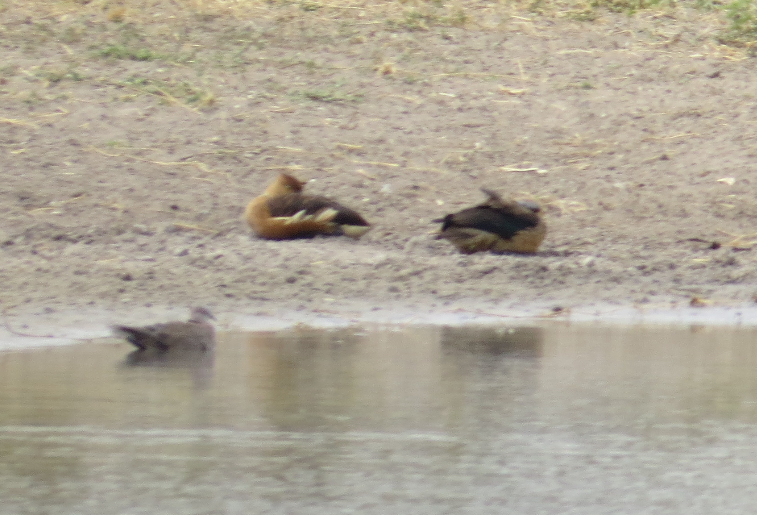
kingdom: Animalia
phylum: Chordata
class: Aves
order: Anseriformes
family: Anatidae
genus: Dendrocygna
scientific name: Dendrocygna bicolor
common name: Fulvous whistling duck
